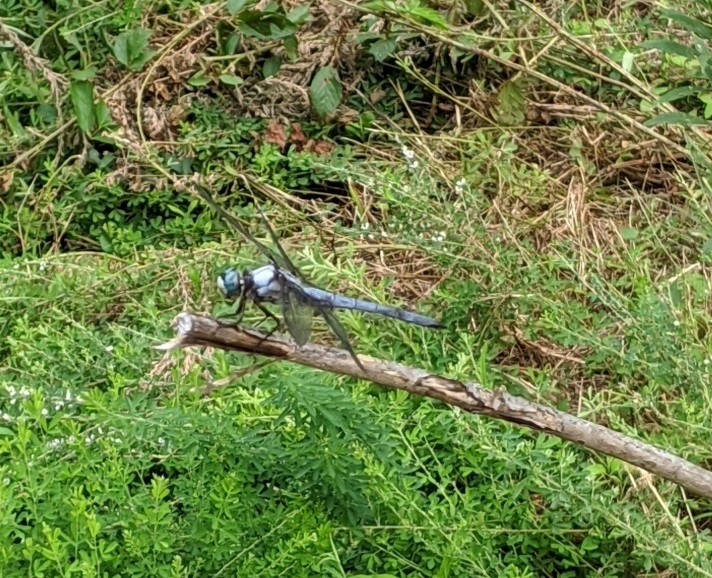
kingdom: Animalia
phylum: Arthropoda
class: Insecta
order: Odonata
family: Libellulidae
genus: Libellula
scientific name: Libellula vibrans
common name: Great blue skimmer
